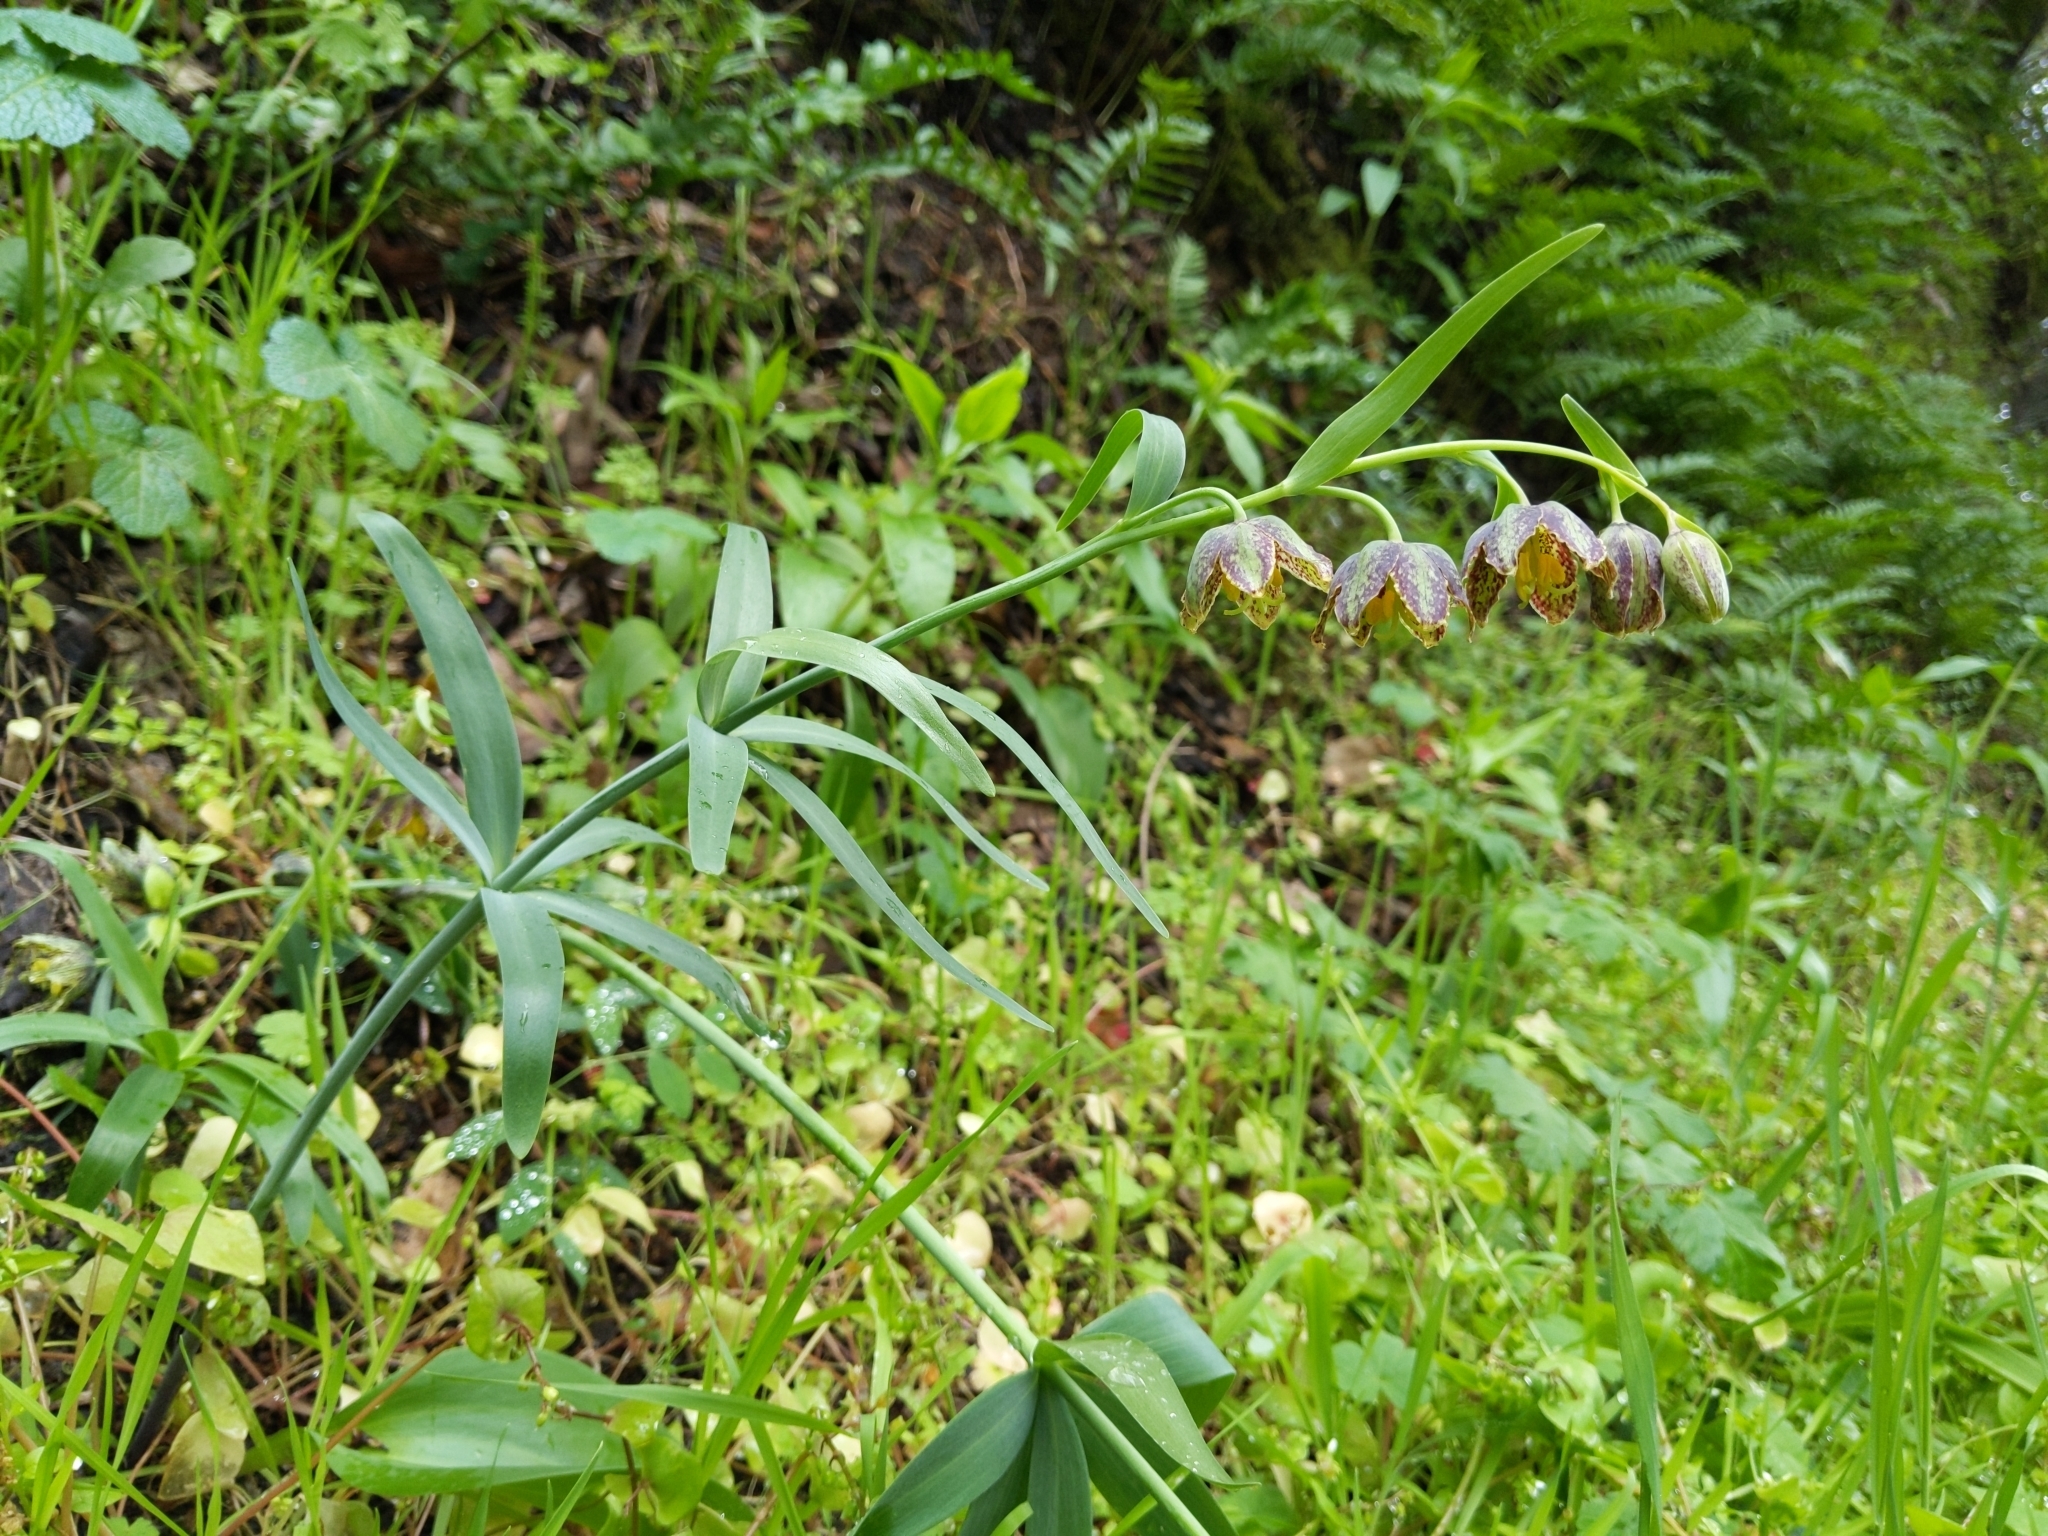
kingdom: Plantae
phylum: Tracheophyta
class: Liliopsida
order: Liliales
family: Liliaceae
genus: Fritillaria
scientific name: Fritillaria affinis
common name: Ojai fritillary
